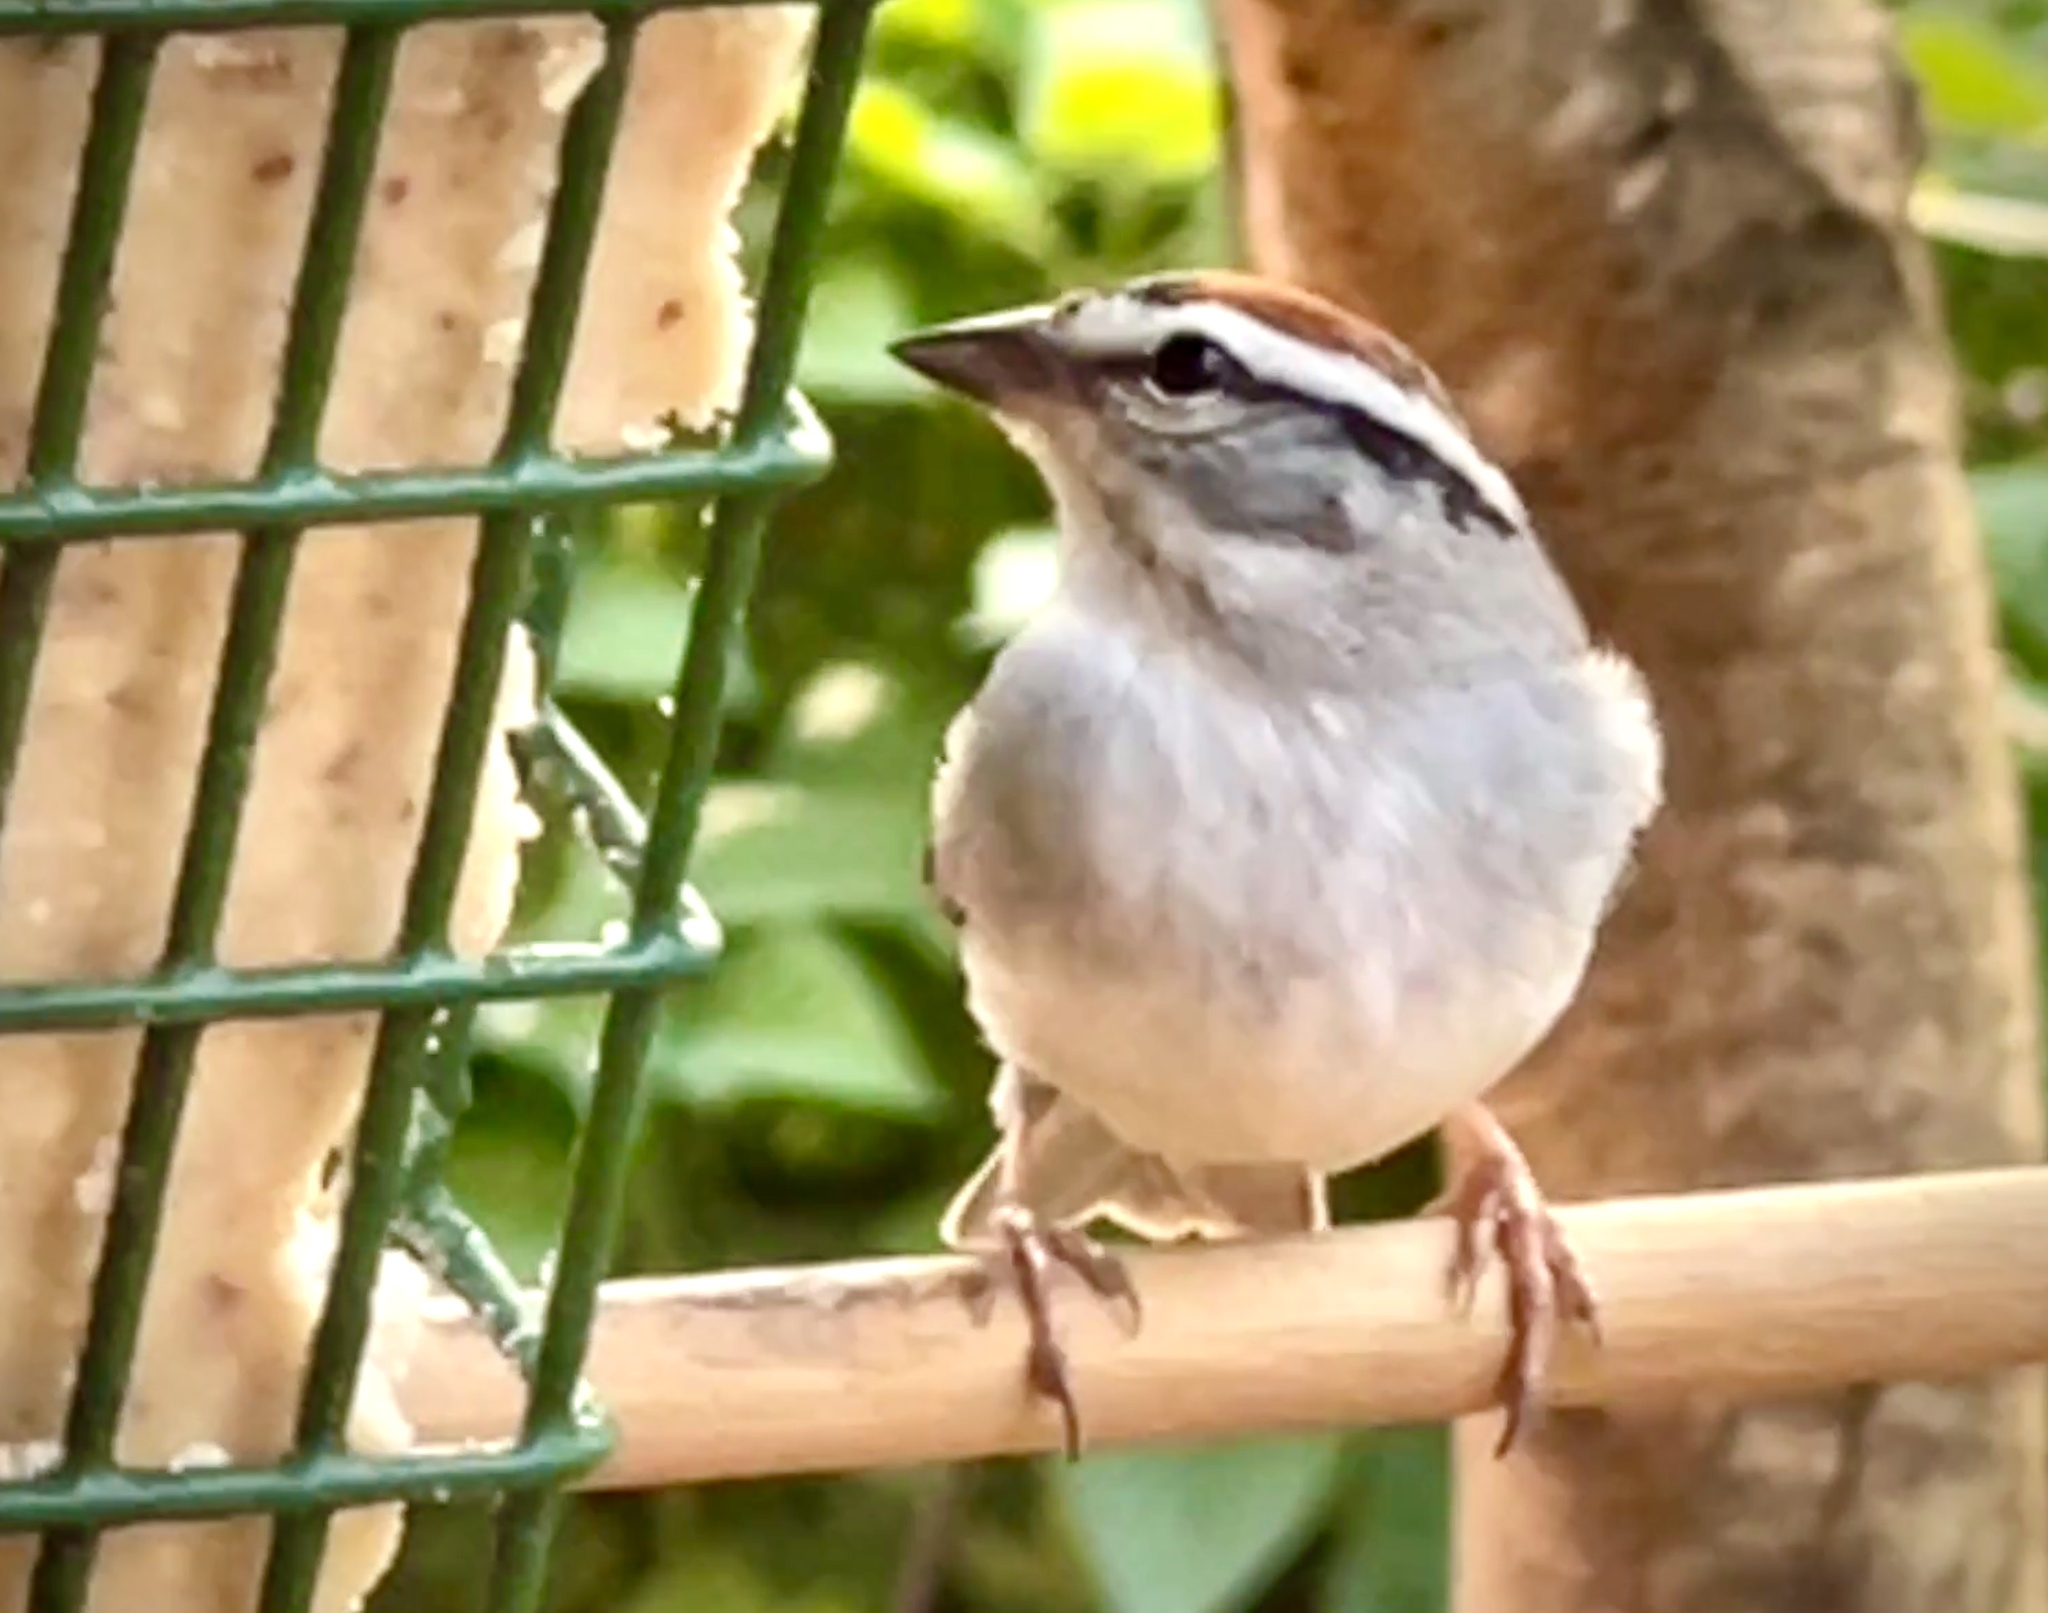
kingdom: Animalia
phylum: Chordata
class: Aves
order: Passeriformes
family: Passerellidae
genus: Spizella
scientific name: Spizella passerina
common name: Chipping sparrow
